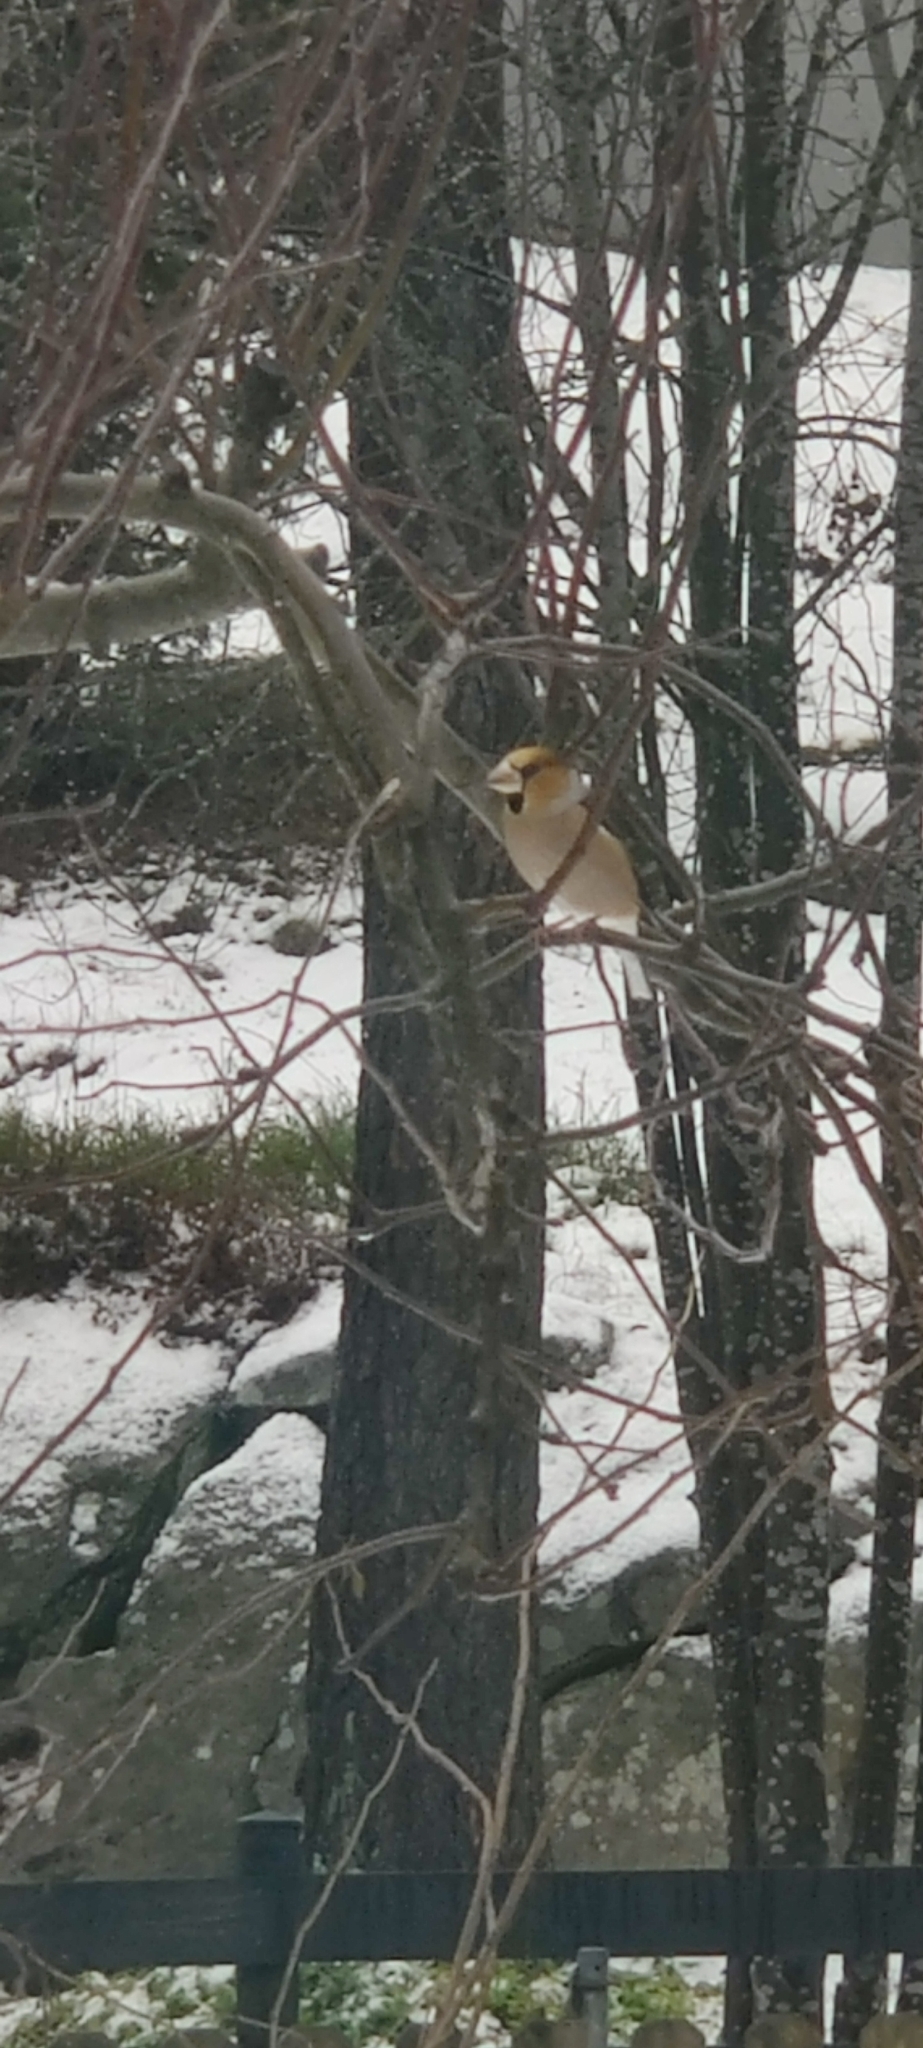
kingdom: Animalia
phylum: Chordata
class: Aves
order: Passeriformes
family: Fringillidae
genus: Coccothraustes
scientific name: Coccothraustes coccothraustes
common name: Hawfinch
